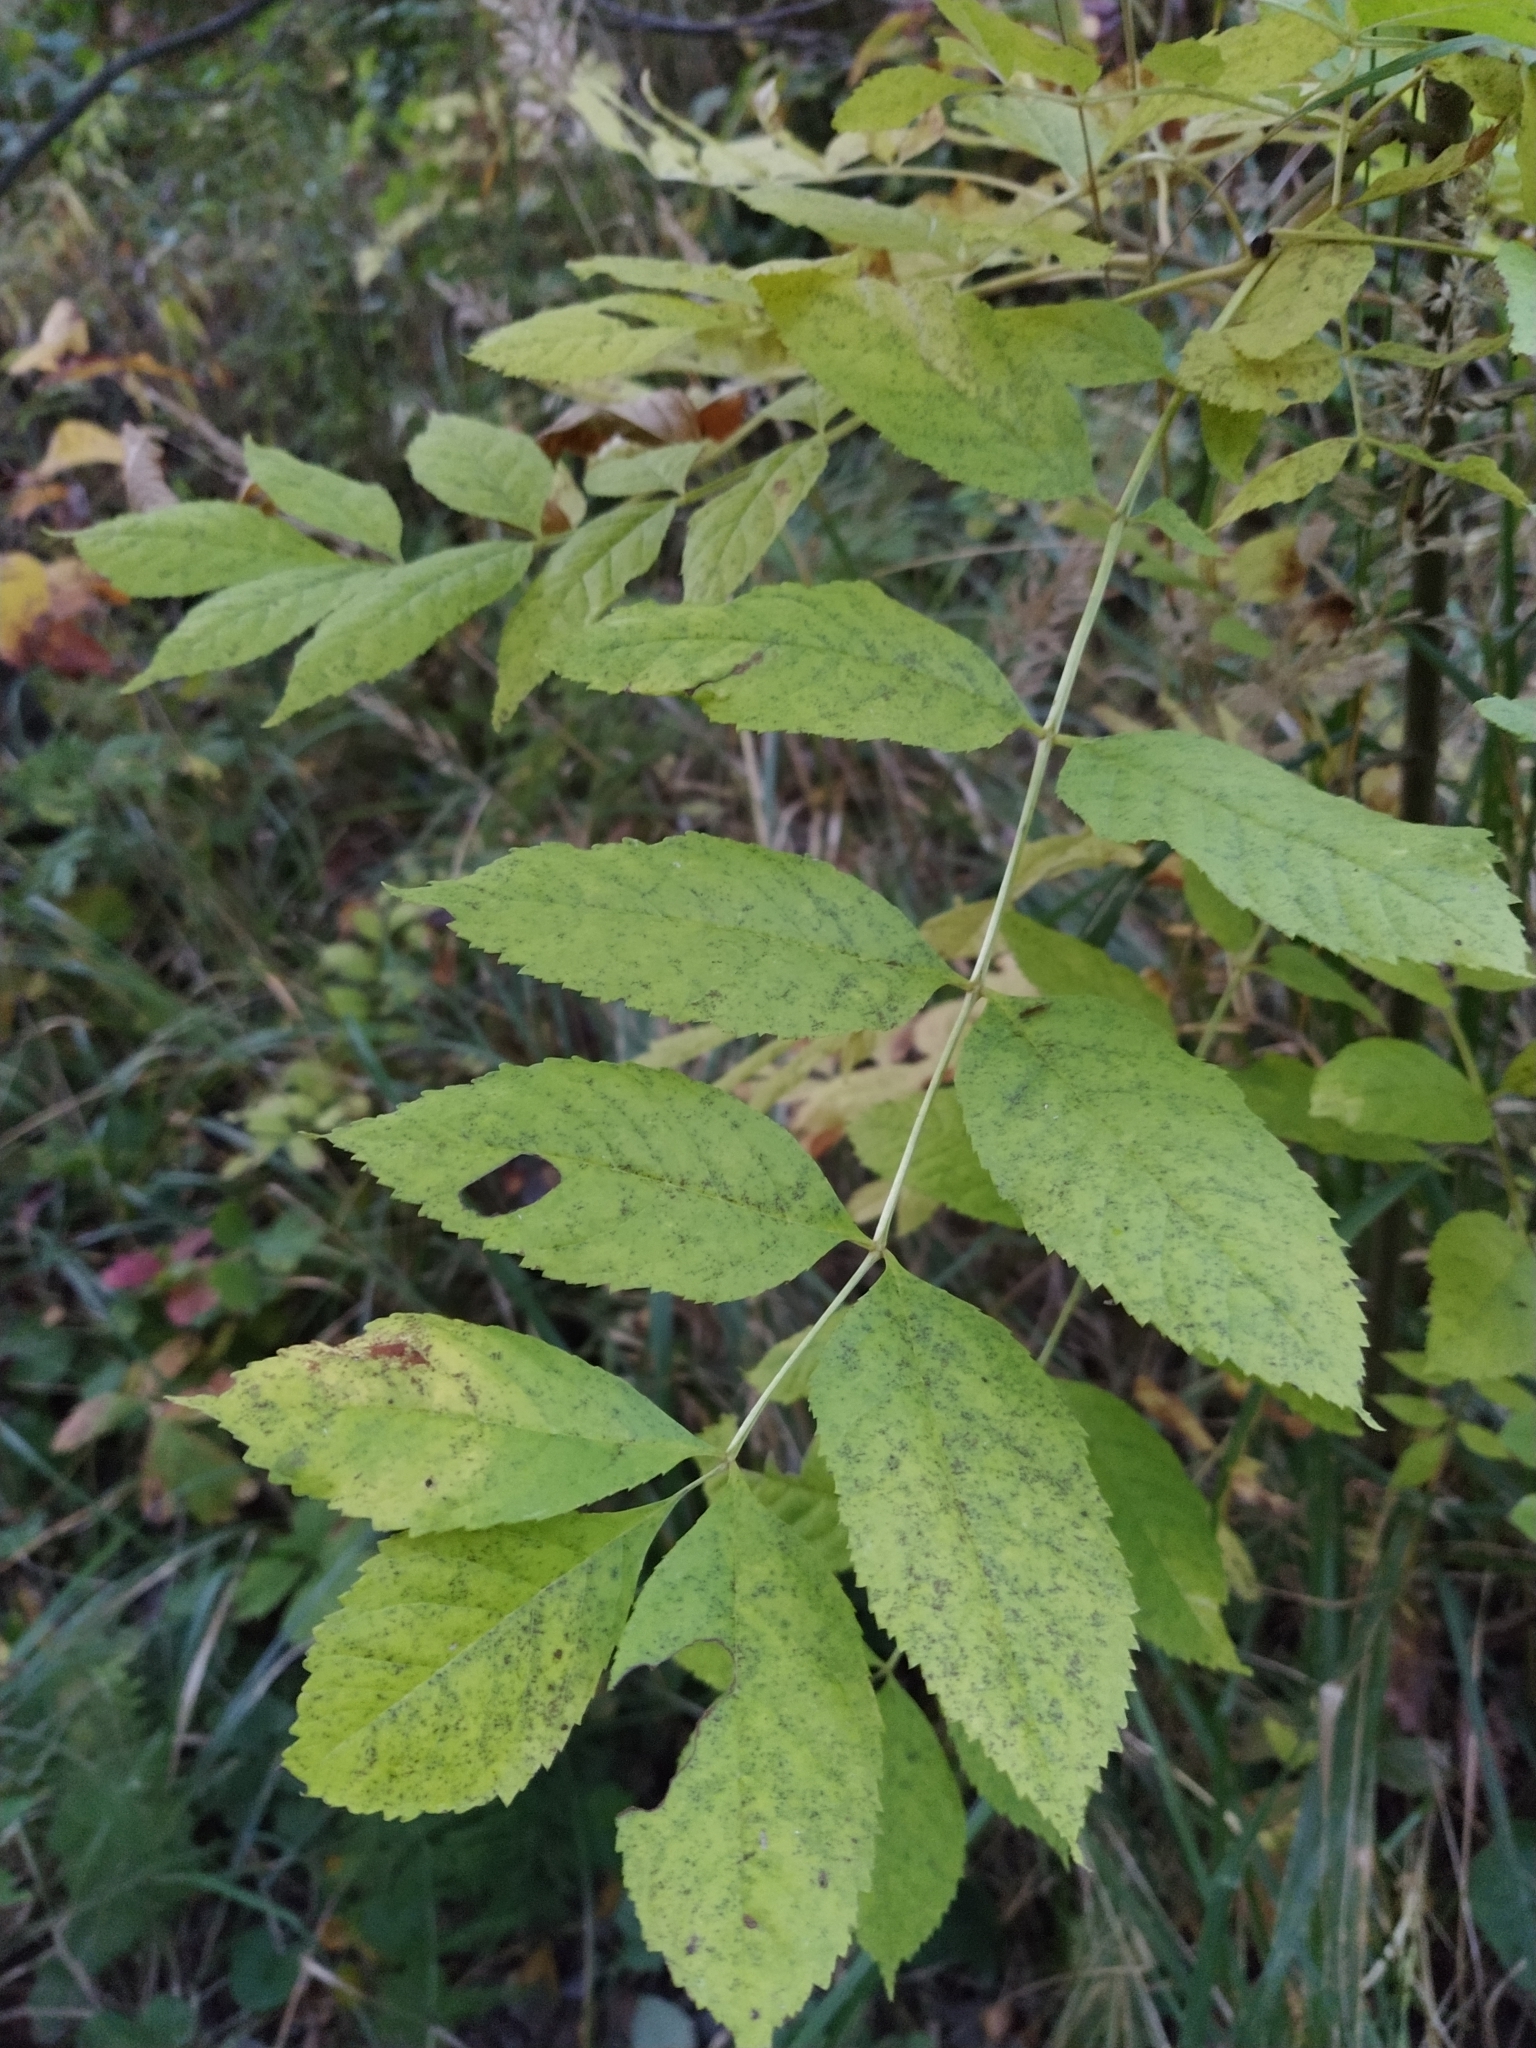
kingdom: Plantae
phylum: Tracheophyta
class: Magnoliopsida
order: Lamiales
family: Oleaceae
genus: Fraxinus
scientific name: Fraxinus excelsior
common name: European ash
